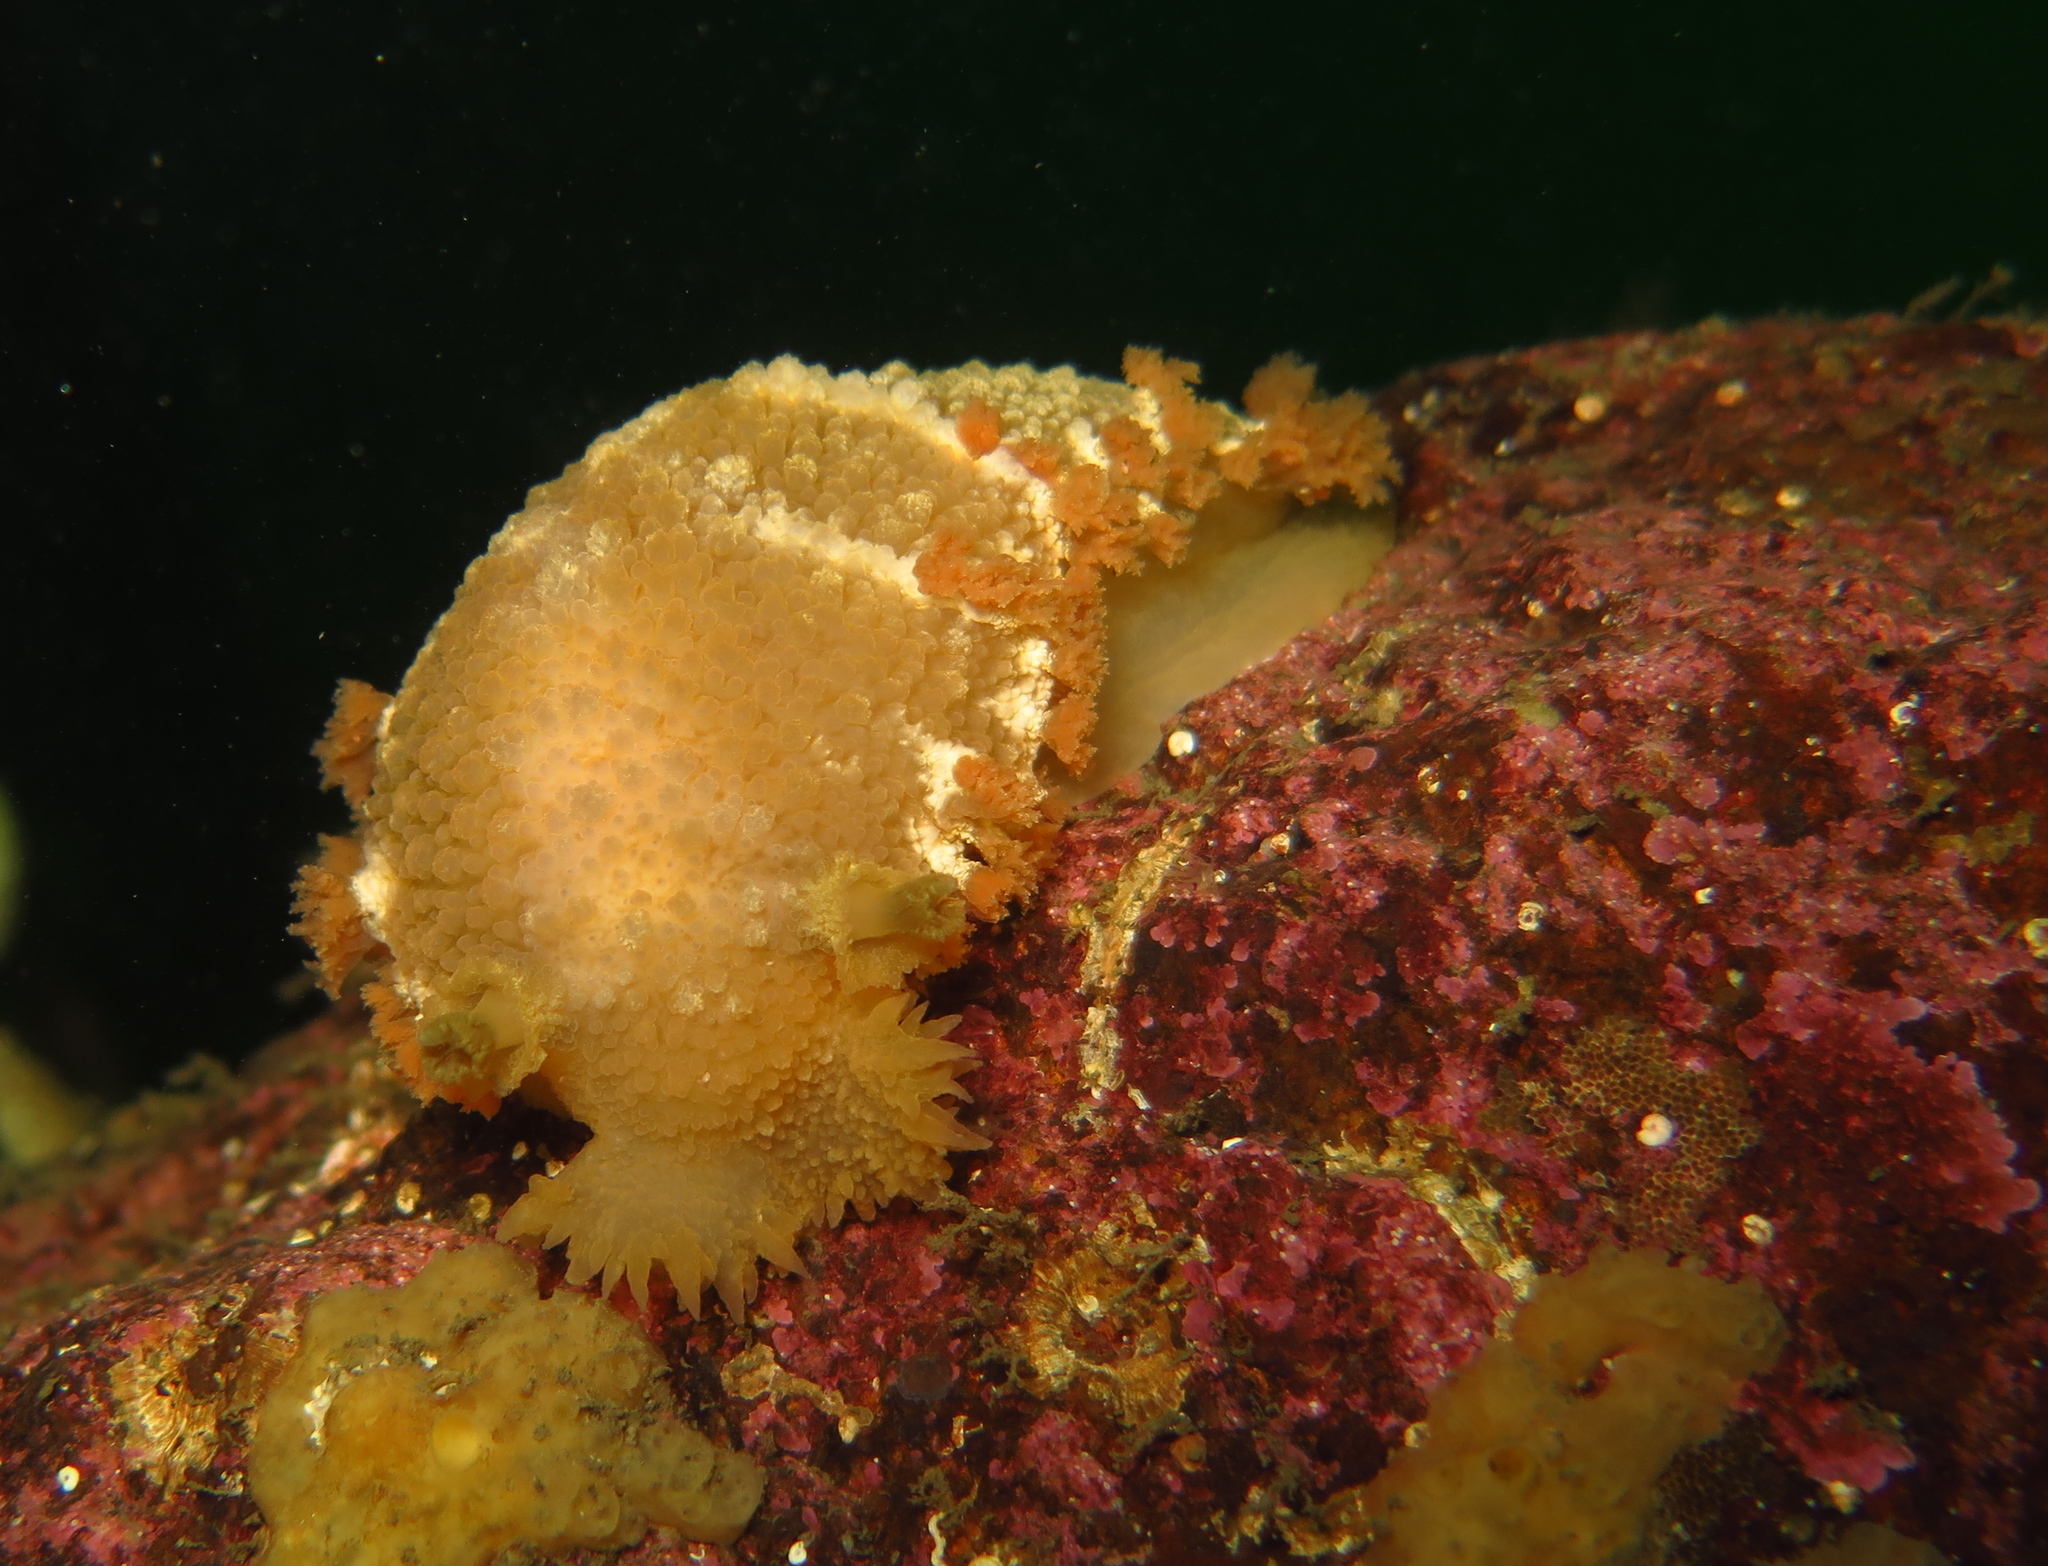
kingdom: Animalia
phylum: Mollusca
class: Gastropoda
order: Nudibranchia
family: Tritoniidae
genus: Tritonia
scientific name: Tritonia hombergii
